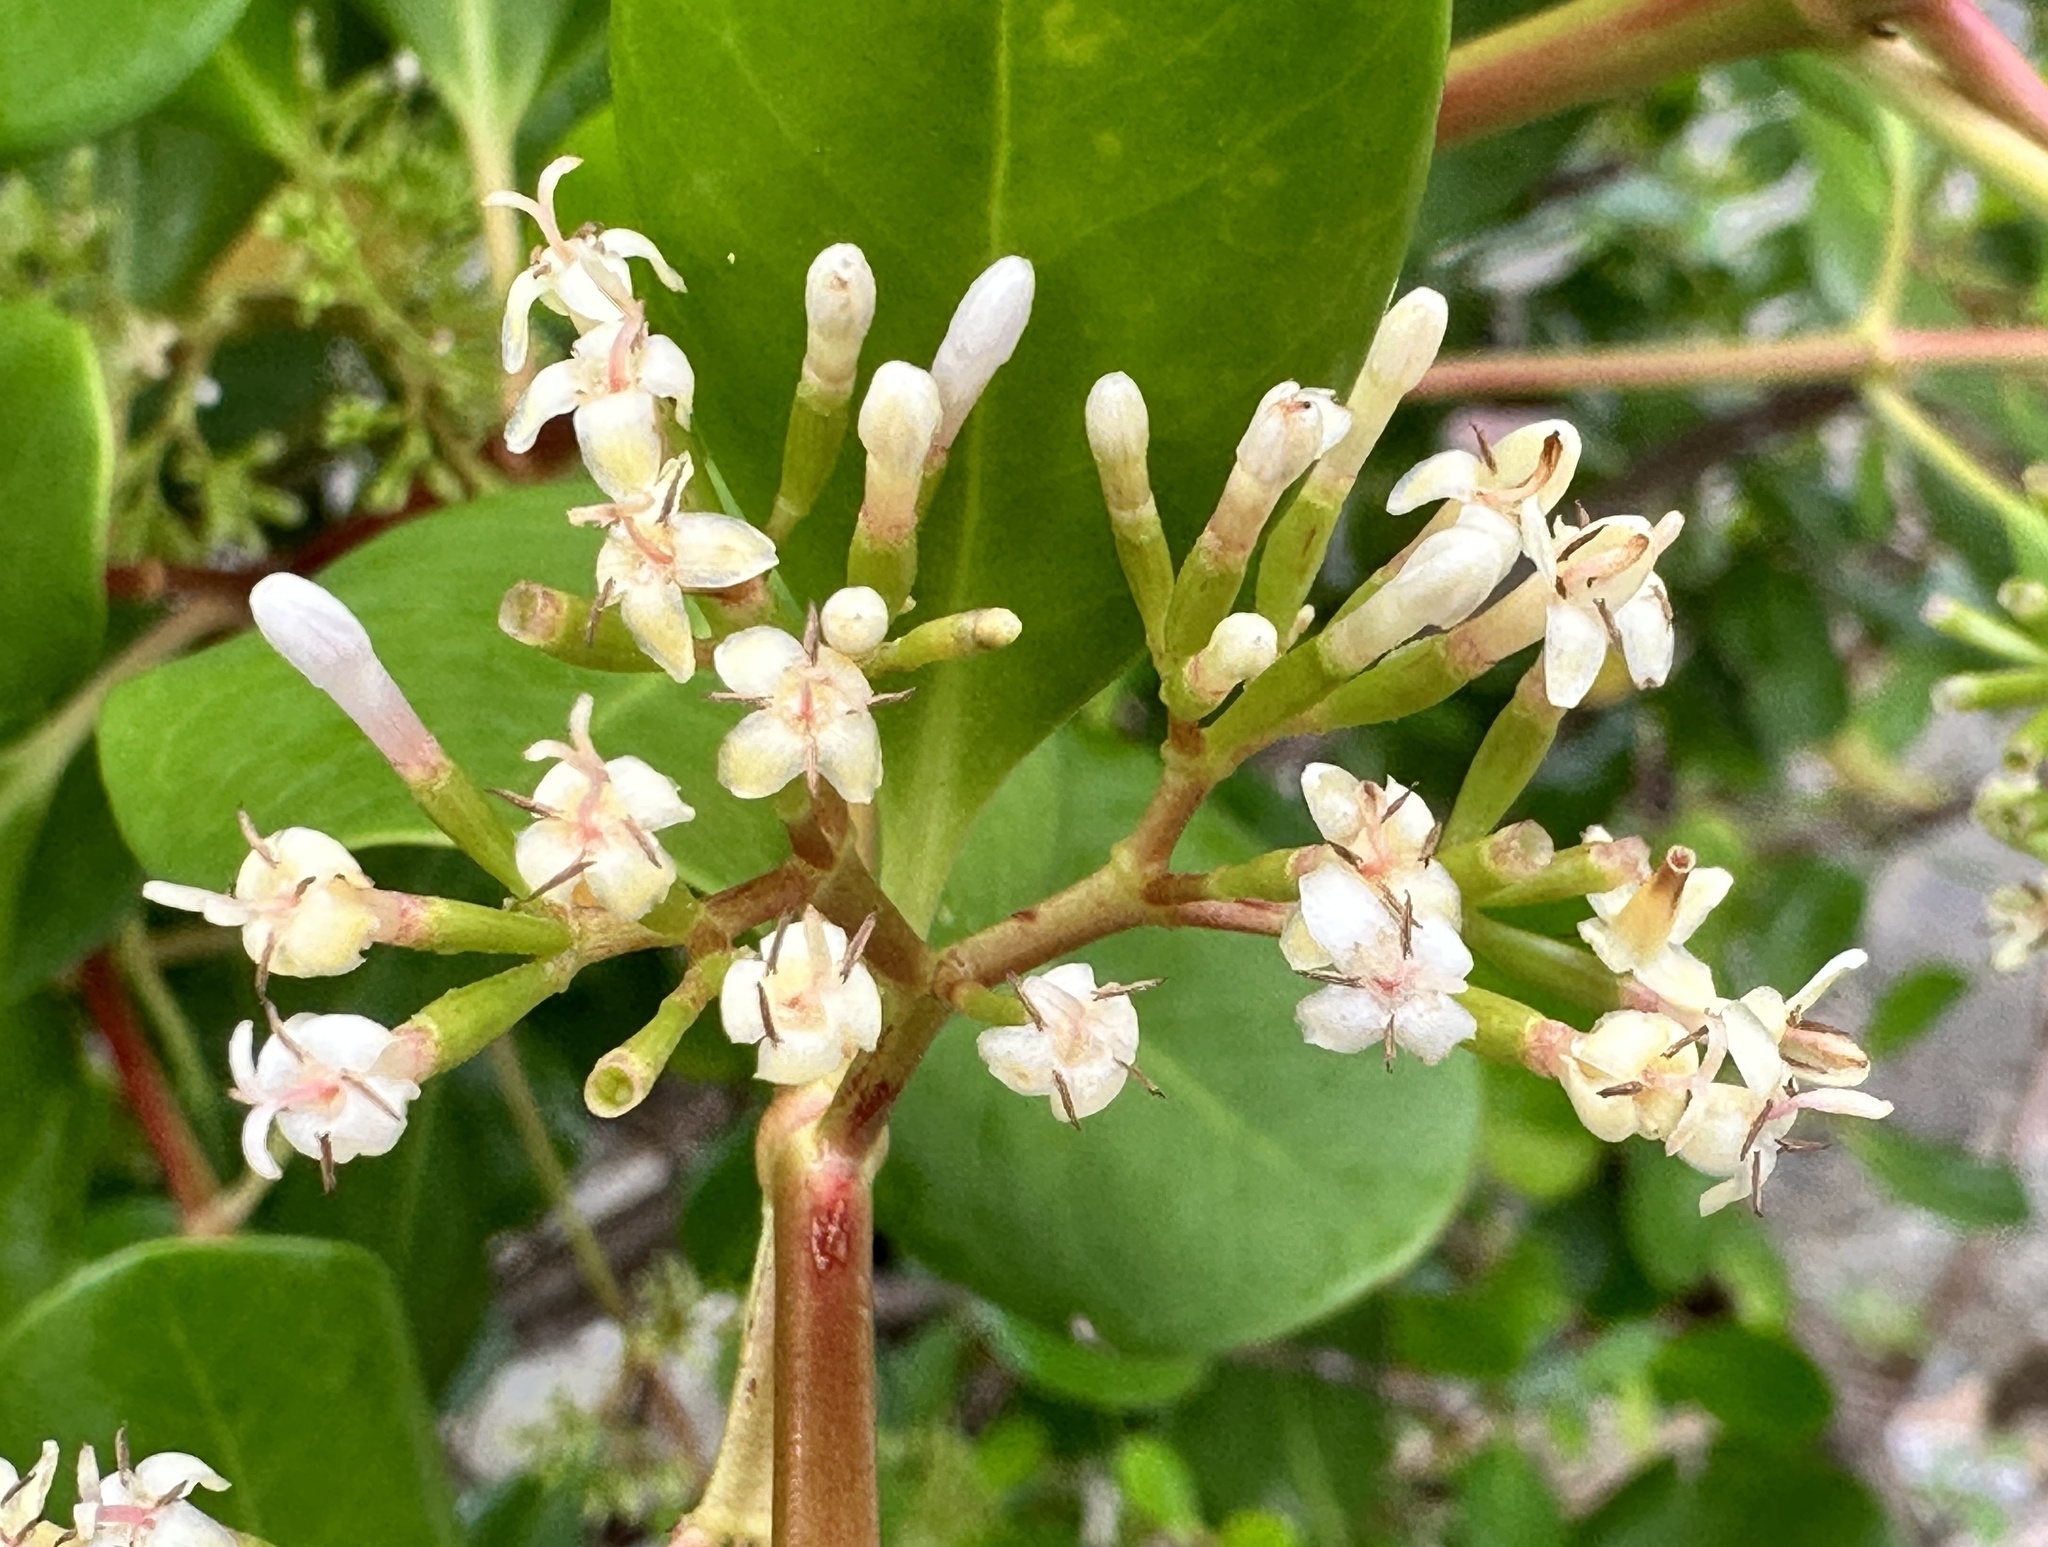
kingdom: Plantae
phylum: Tracheophyta
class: Magnoliopsida
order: Gentianales
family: Rubiaceae
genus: Scyphiphora
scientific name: Scyphiphora hydrophylacea
